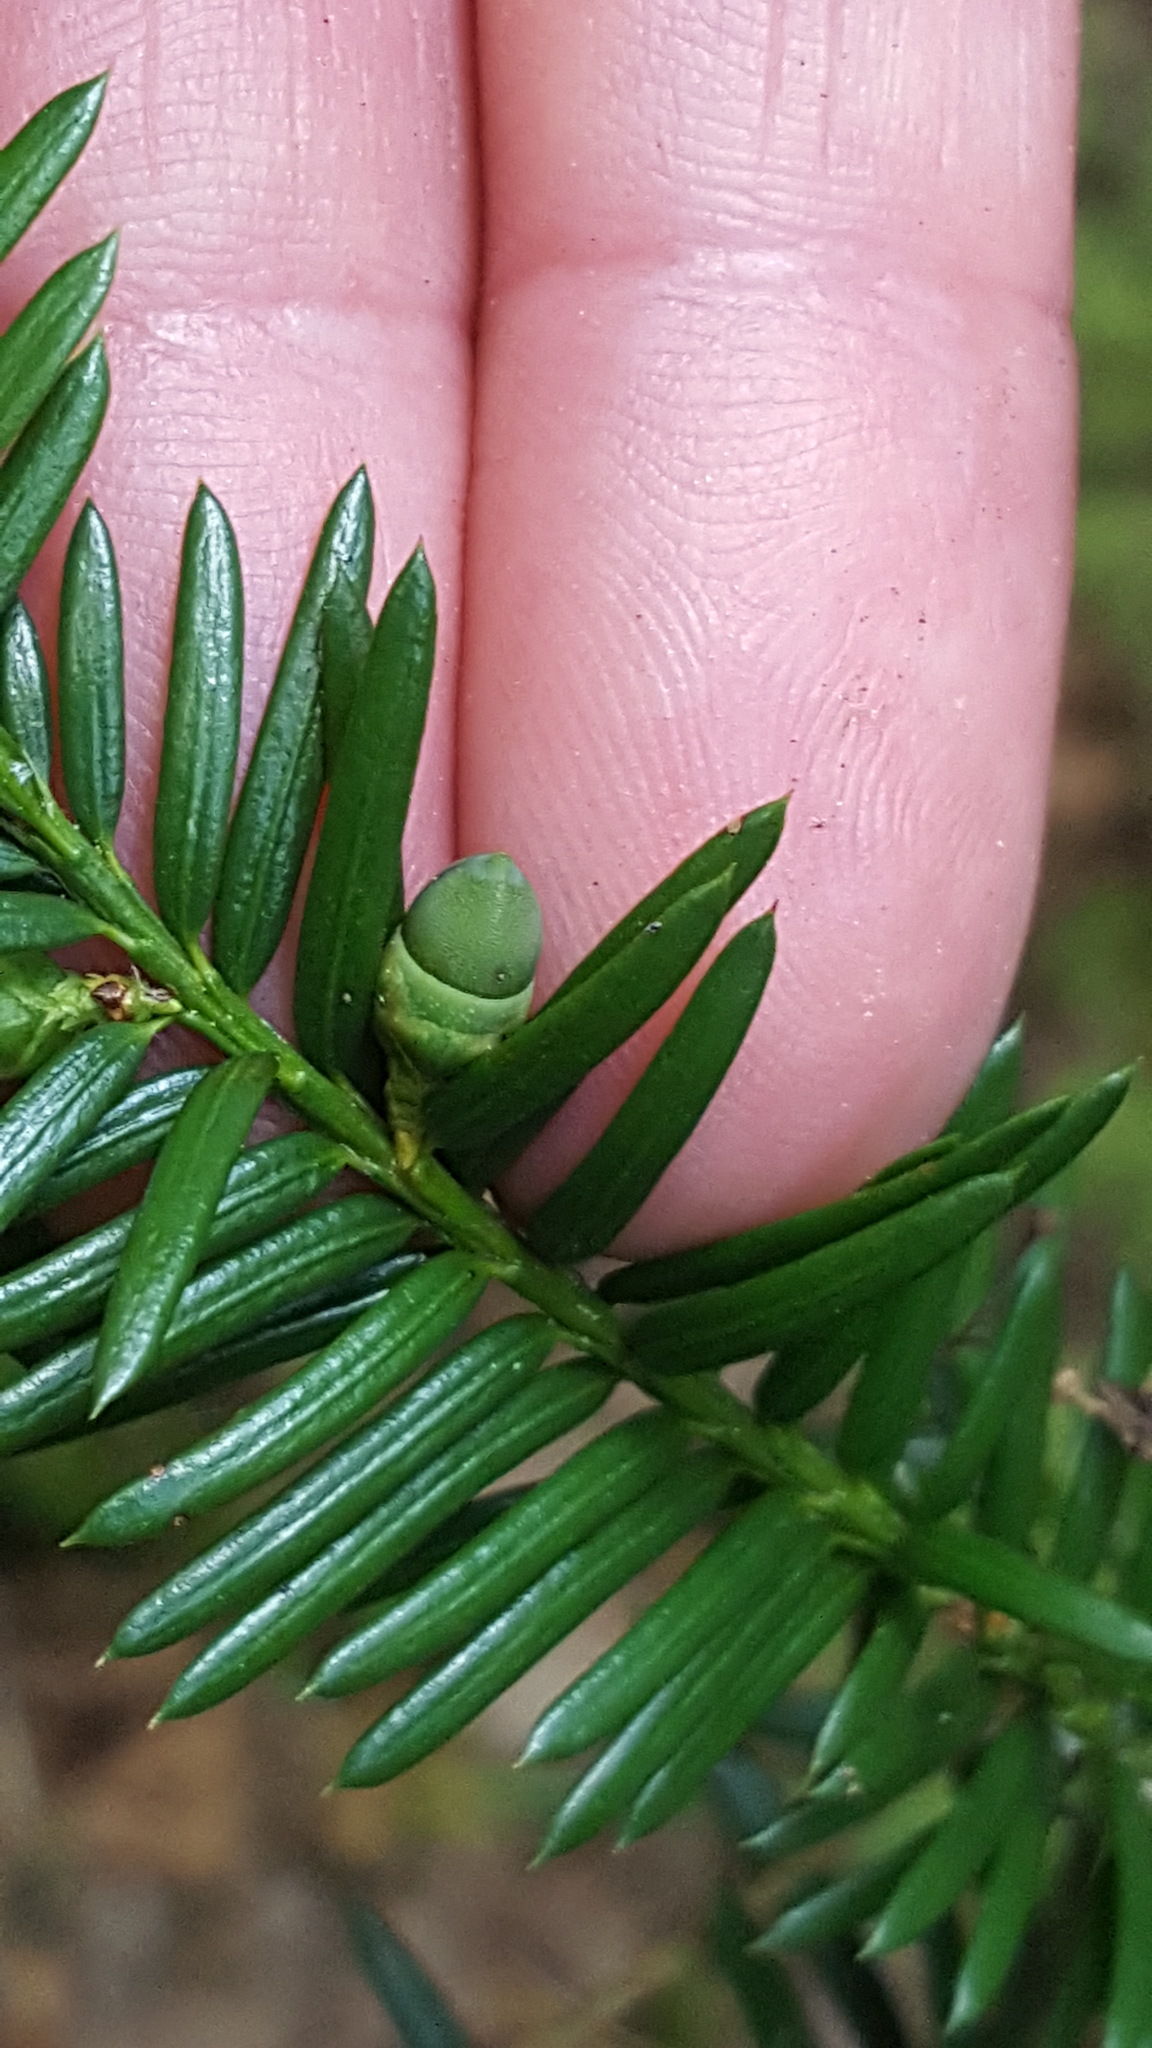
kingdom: Plantae
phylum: Tracheophyta
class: Pinopsida
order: Pinales
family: Taxaceae
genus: Taxus
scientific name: Taxus canadensis
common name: American yew
